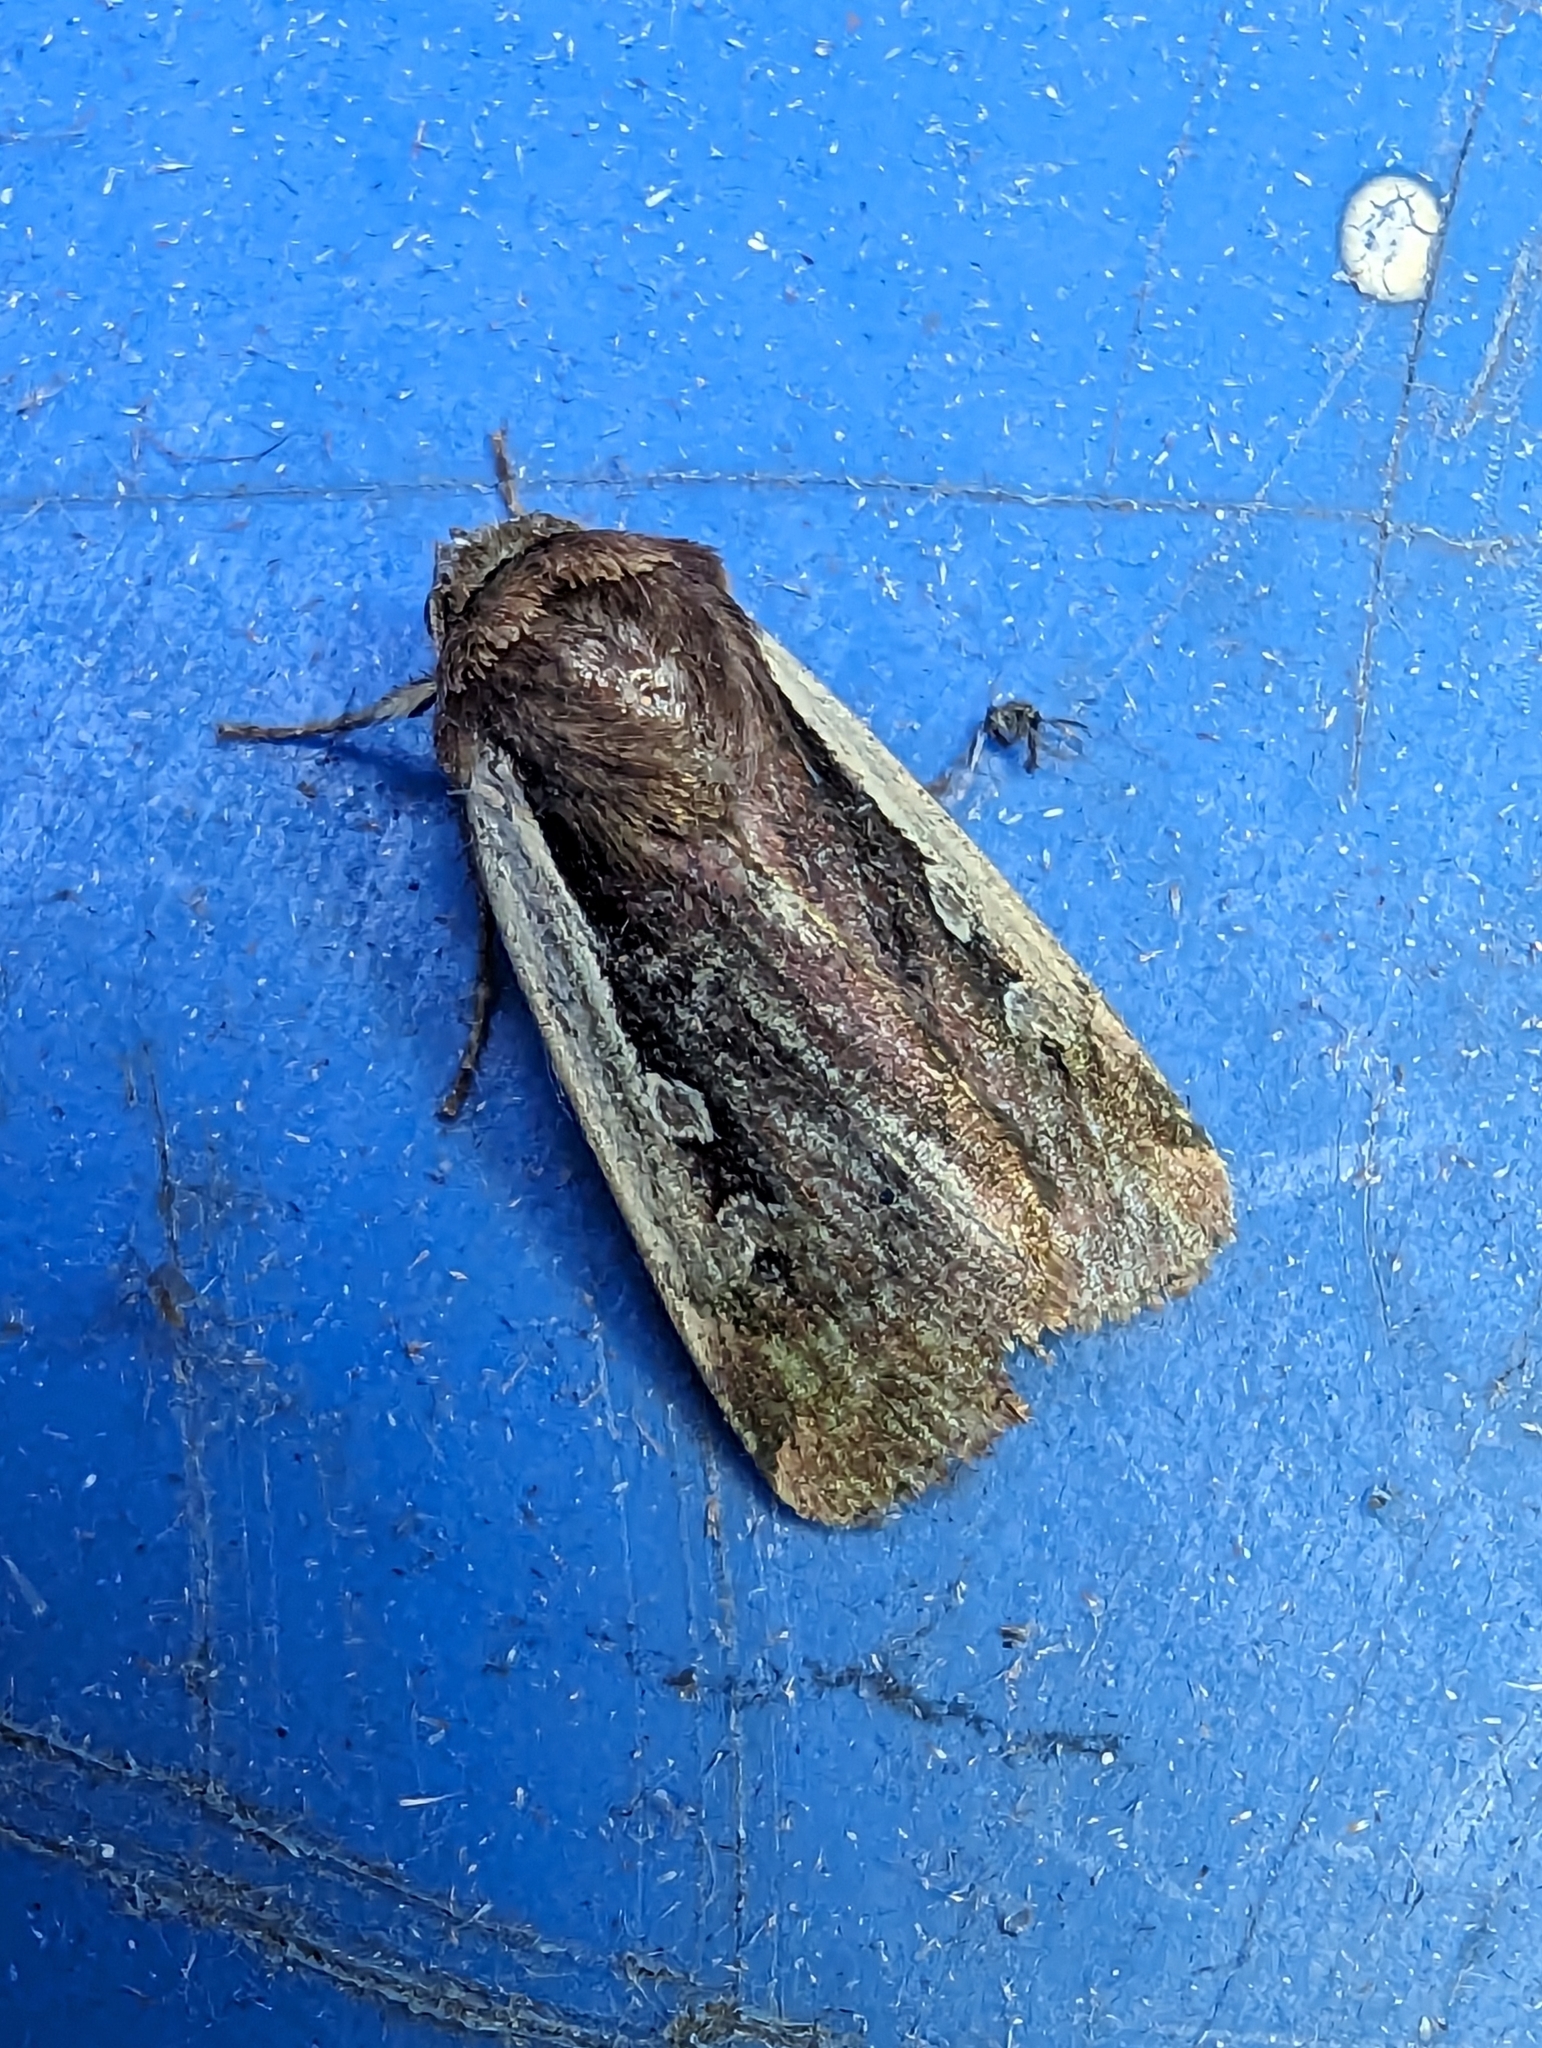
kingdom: Animalia
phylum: Arthropoda
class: Insecta
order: Lepidoptera
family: Noctuidae
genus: Ochropleura
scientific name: Ochropleura plecta
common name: Flame shoulder
